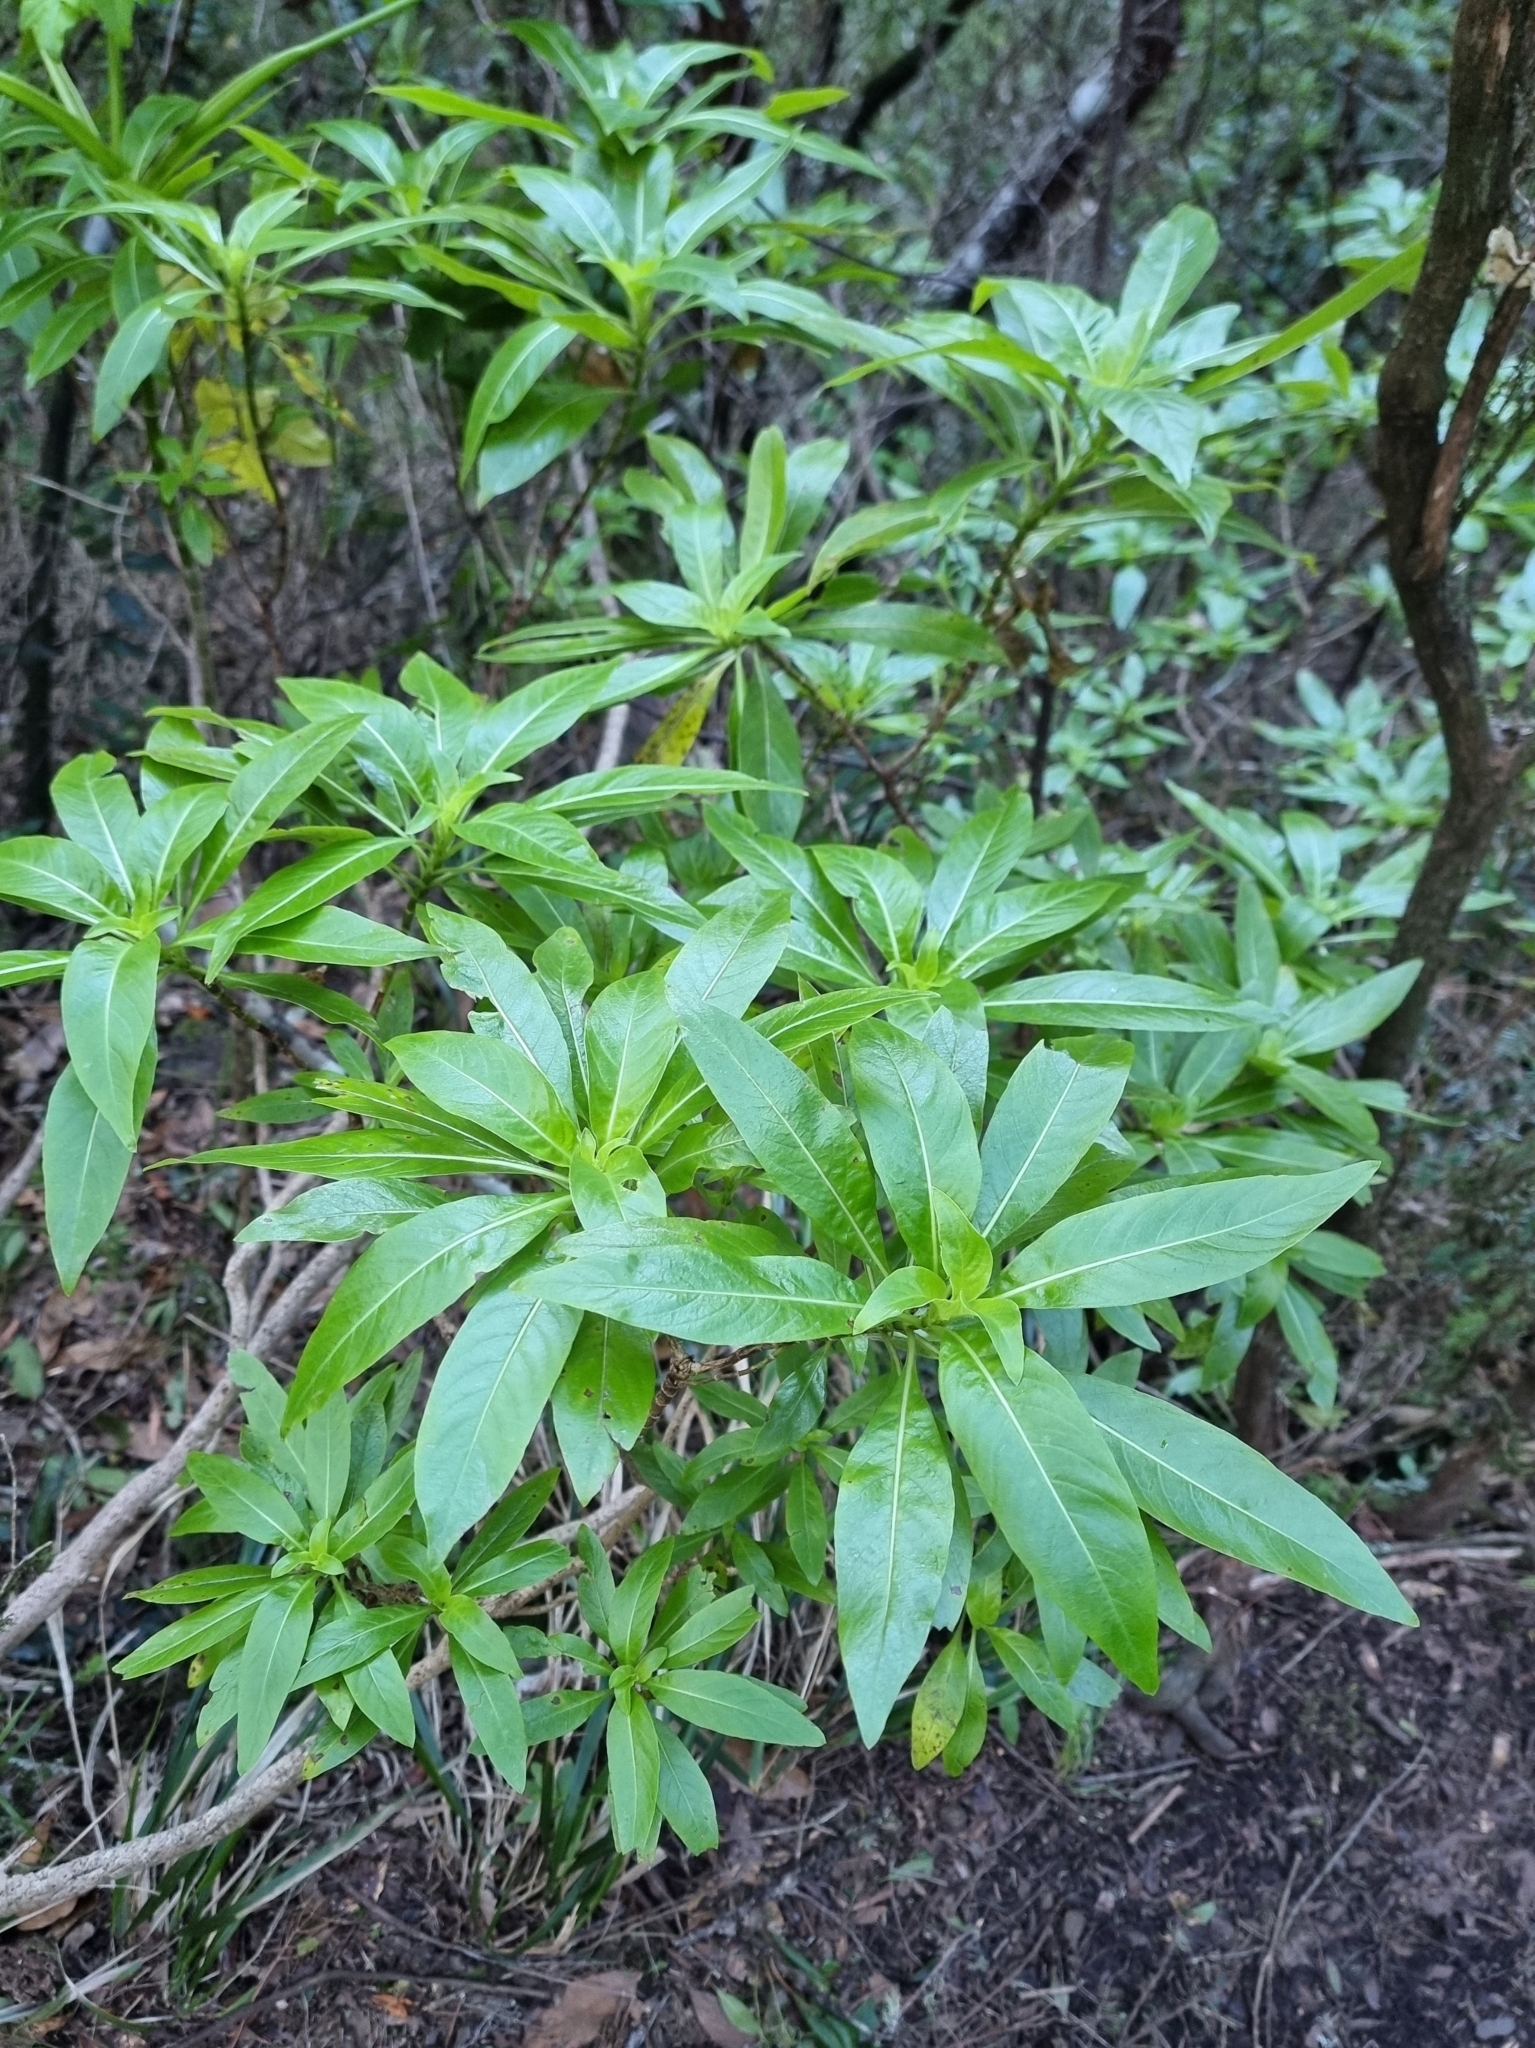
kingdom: Plantae
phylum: Tracheophyta
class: Magnoliopsida
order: Gentianales
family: Rubiaceae
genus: Phyllis
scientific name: Phyllis nobla
